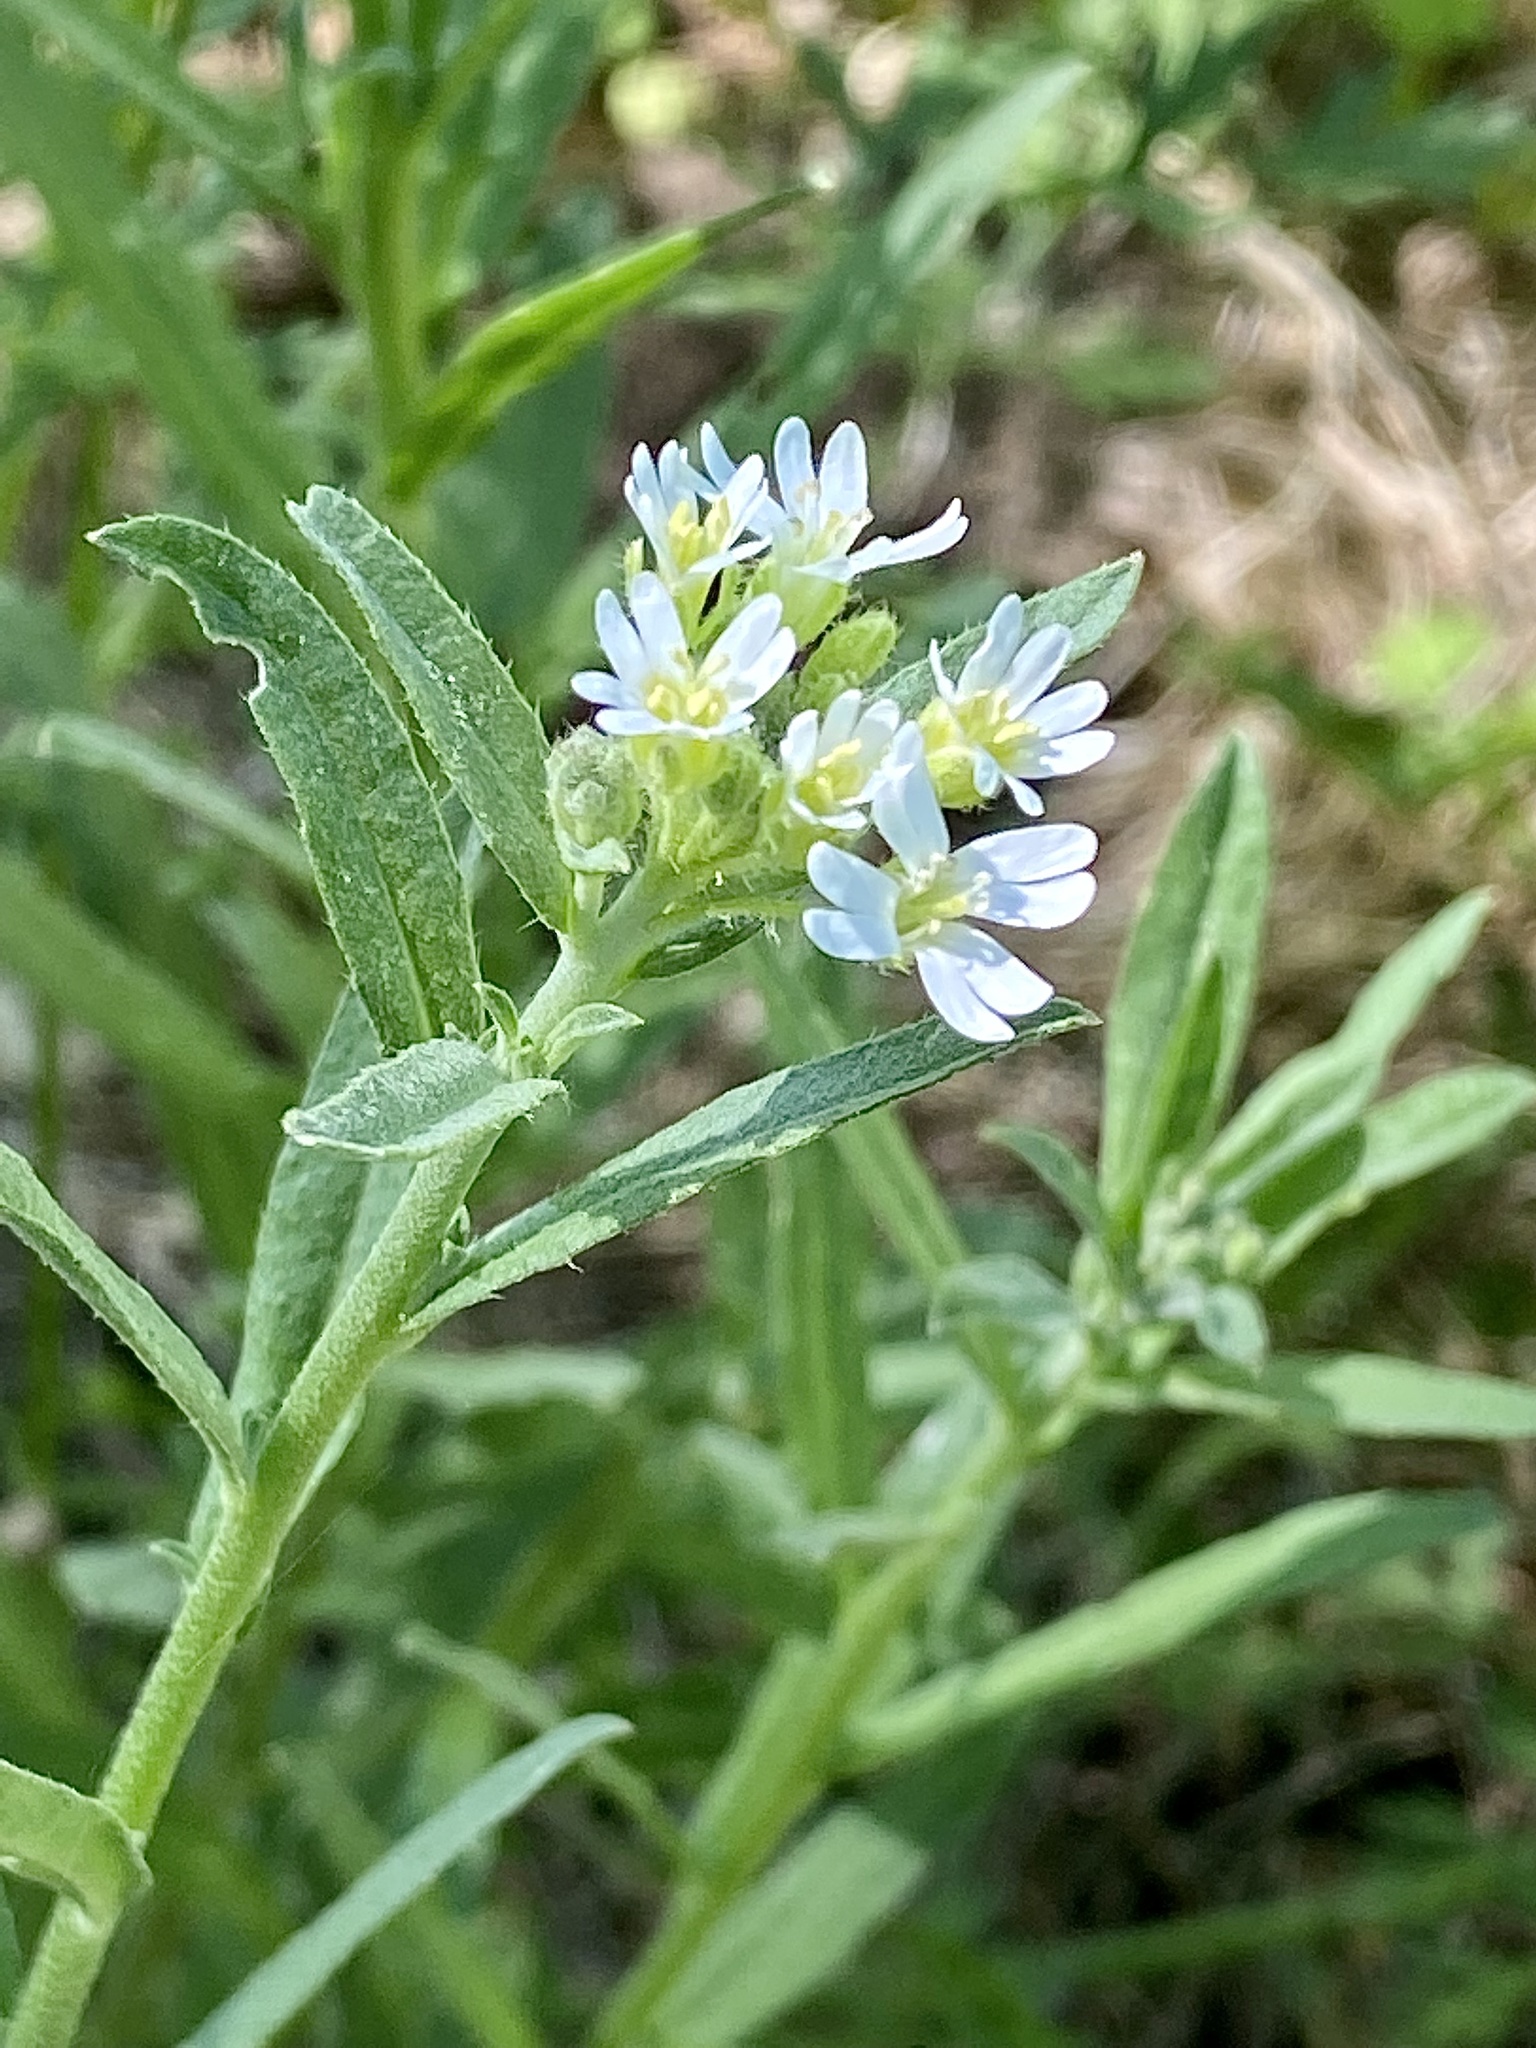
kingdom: Plantae
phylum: Tracheophyta
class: Magnoliopsida
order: Brassicales
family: Brassicaceae
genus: Berteroa
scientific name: Berteroa incana
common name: Hoary alison
